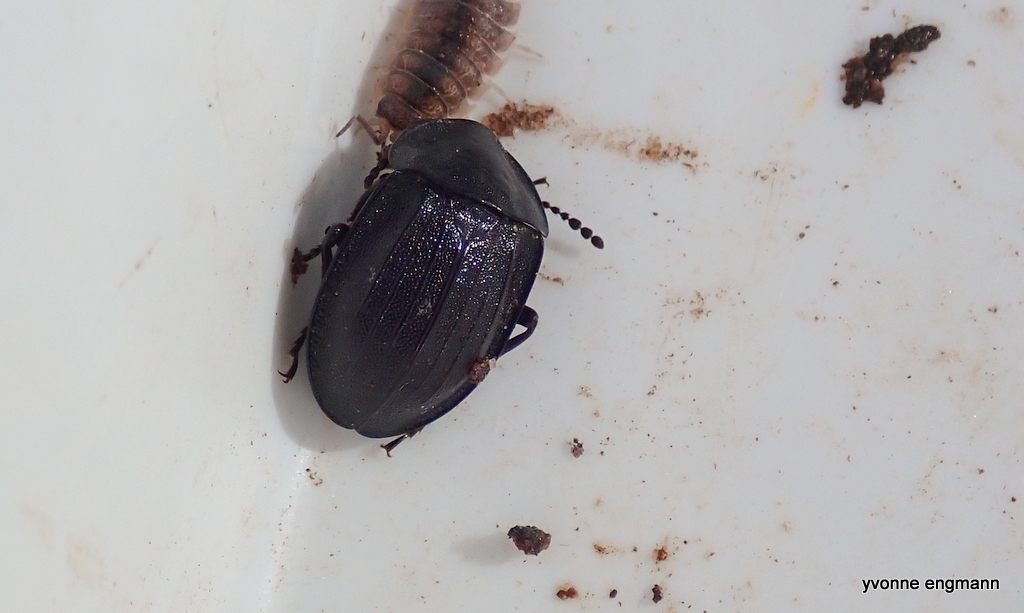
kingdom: Animalia
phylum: Arthropoda
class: Insecta
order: Coleoptera
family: Staphylinidae
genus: Silpha
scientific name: Silpha atrata
